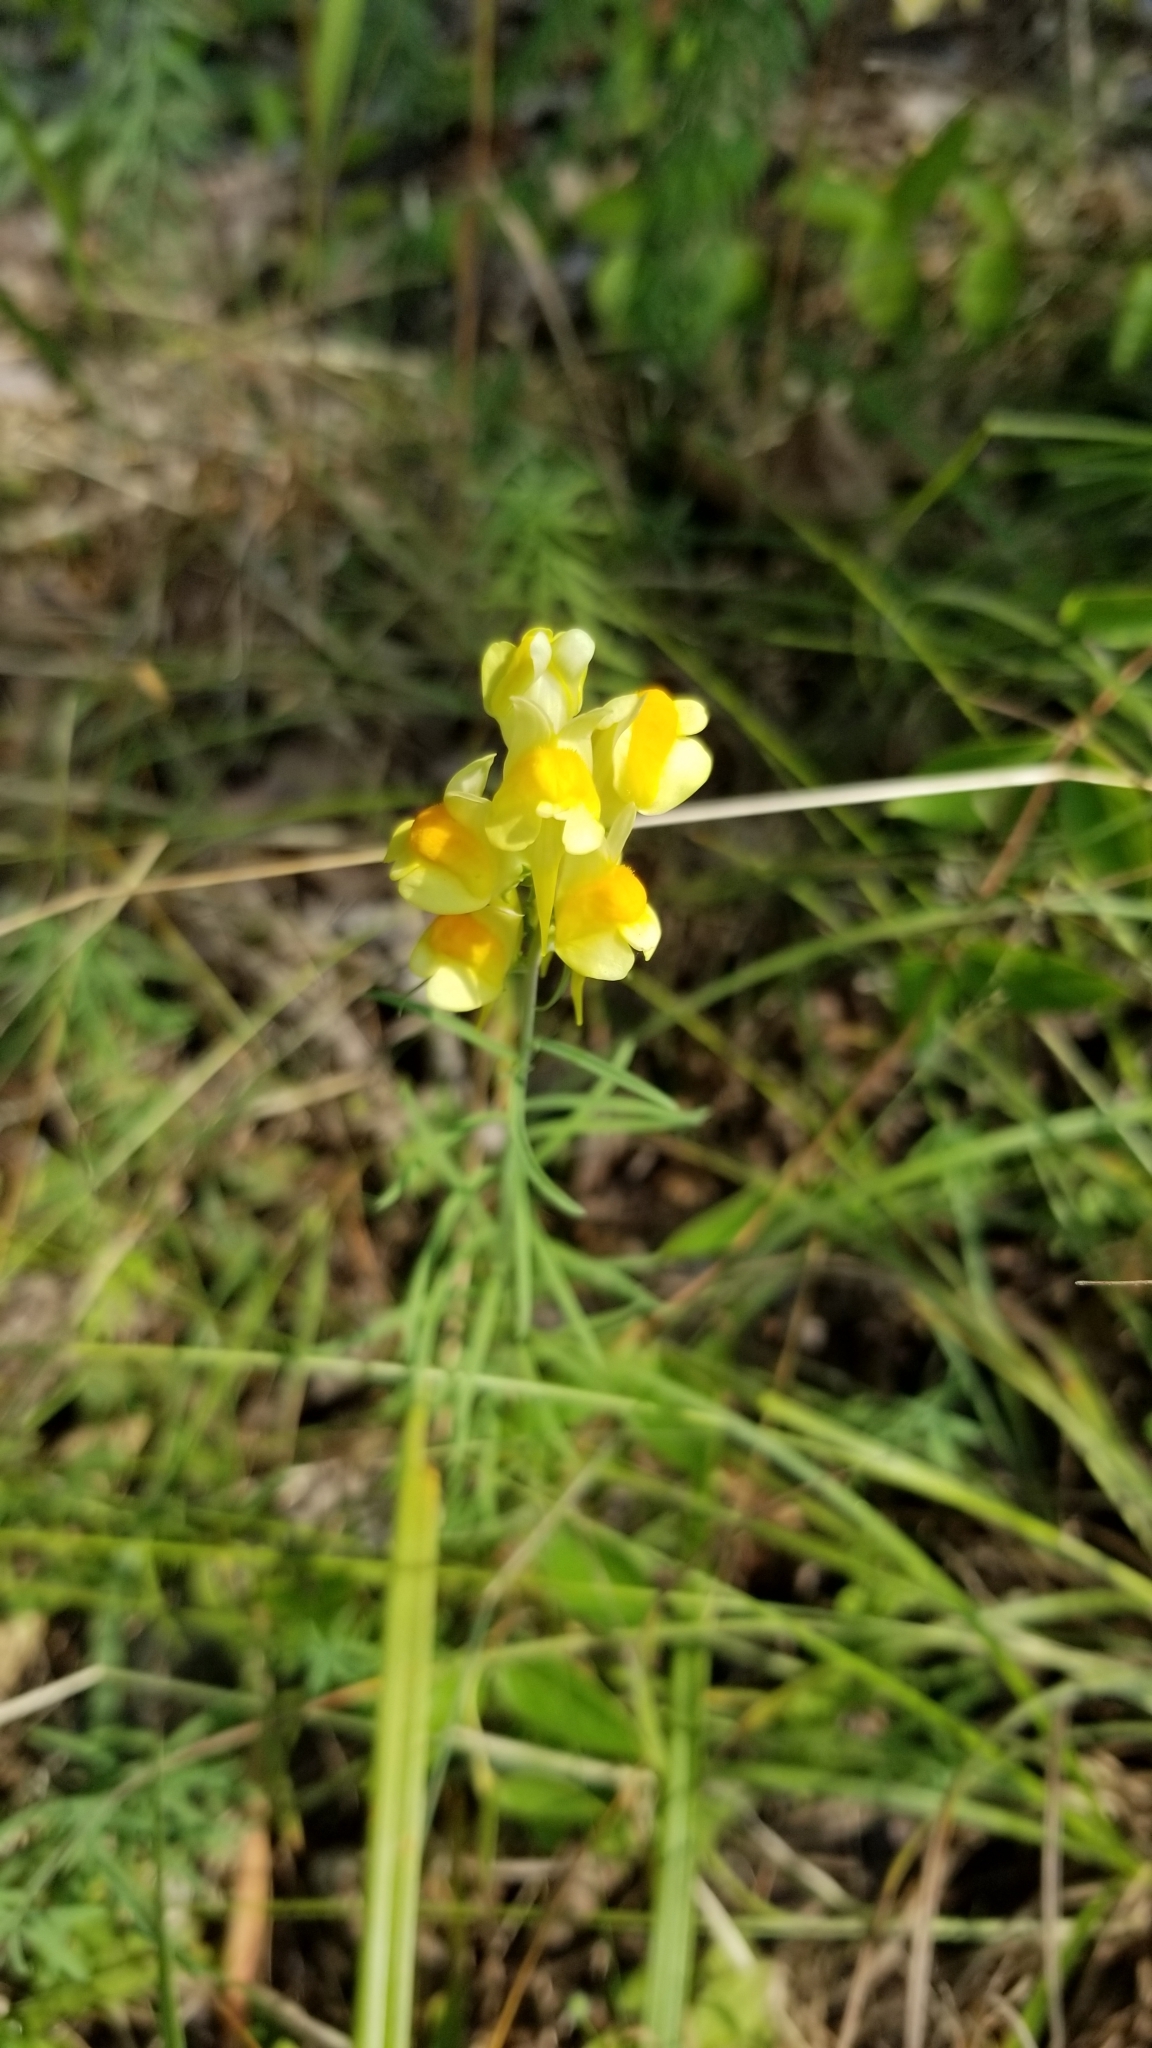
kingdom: Plantae
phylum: Tracheophyta
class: Magnoliopsida
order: Lamiales
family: Plantaginaceae
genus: Linaria
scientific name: Linaria vulgaris
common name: Butter and eggs
